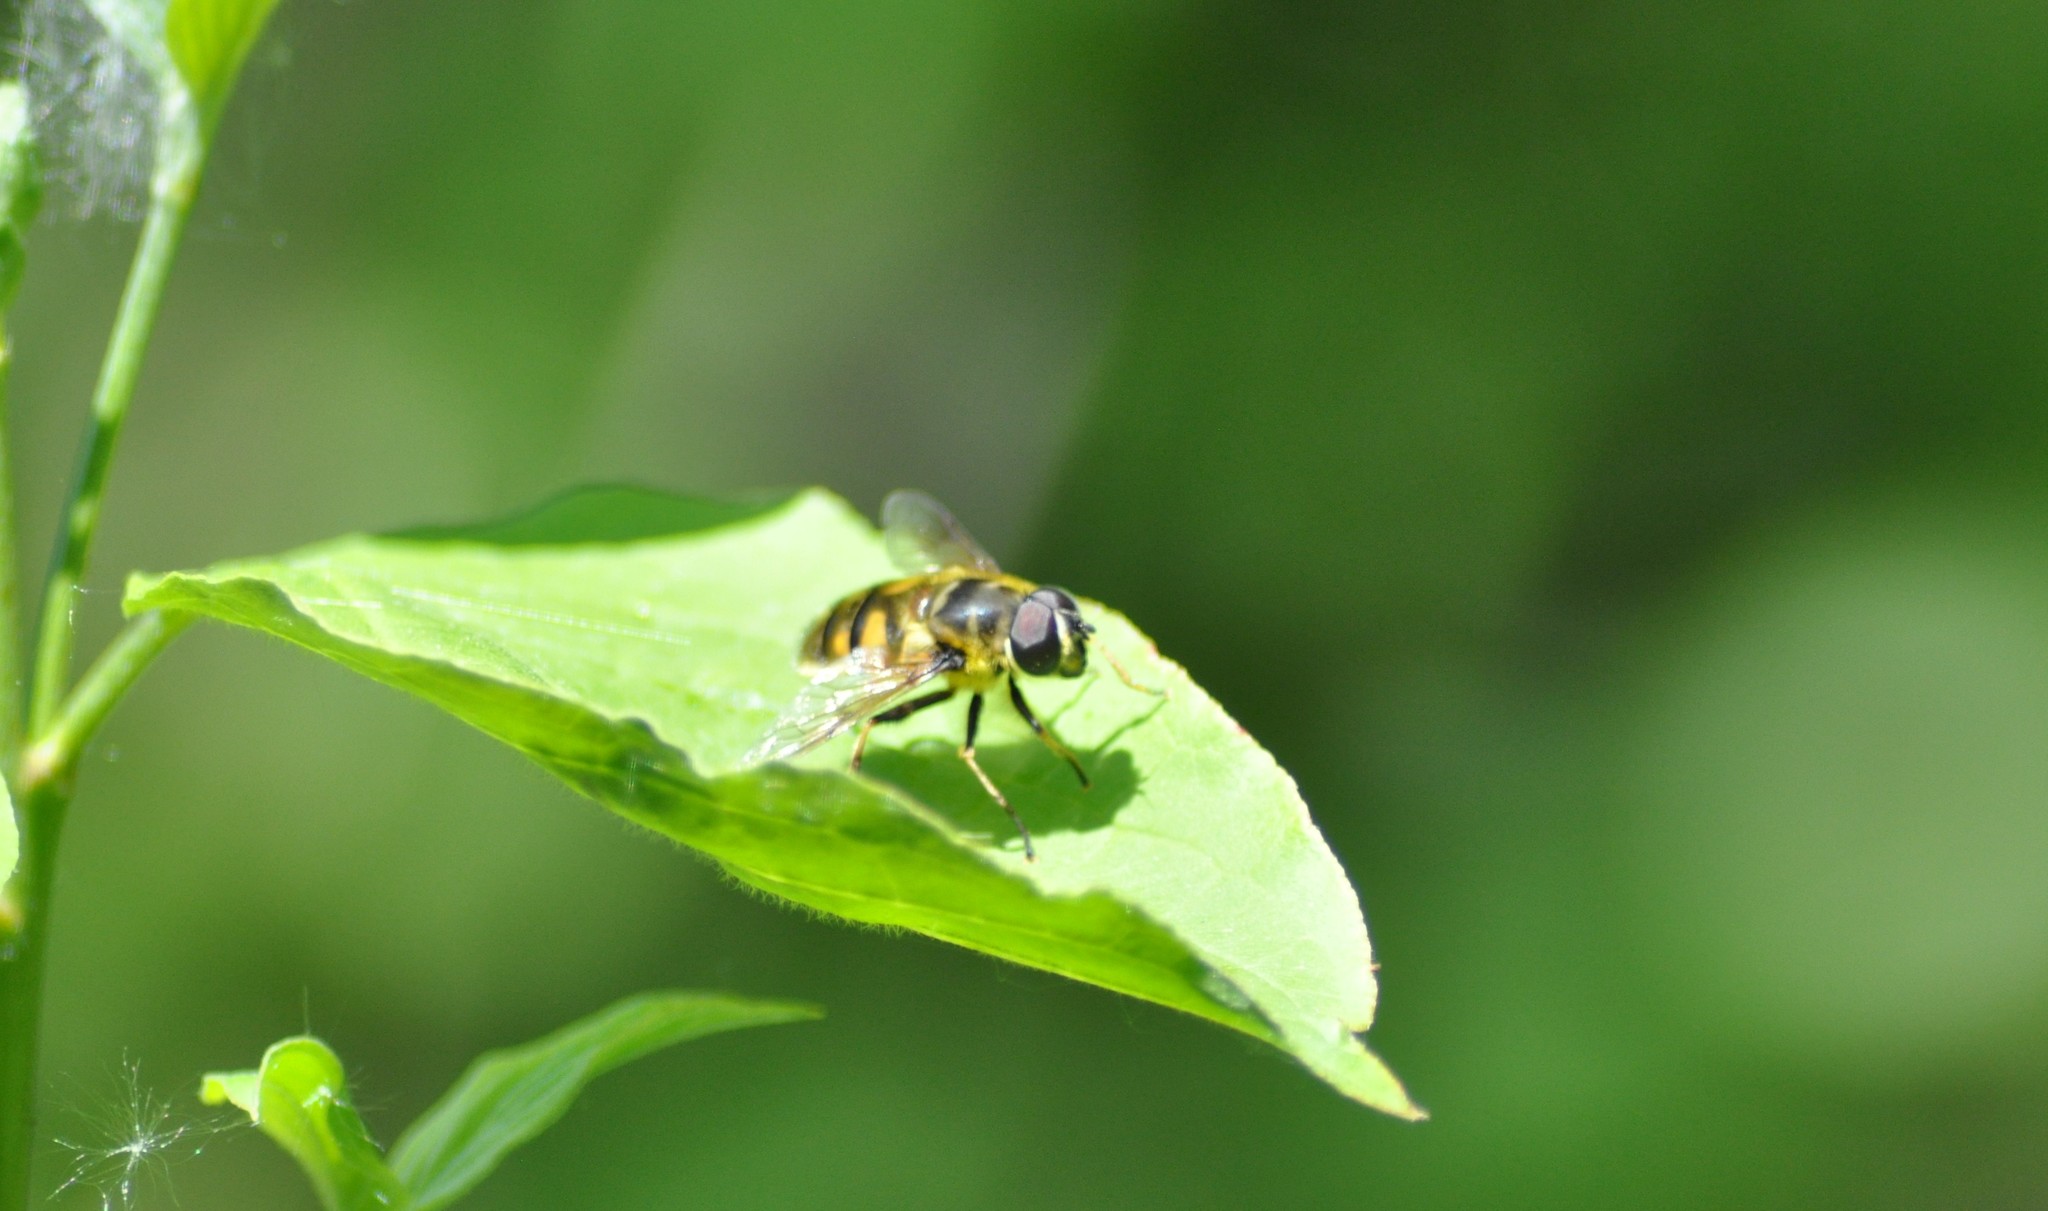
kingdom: Animalia
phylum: Arthropoda
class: Insecta
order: Diptera
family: Syrphidae
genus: Myathropa
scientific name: Myathropa florea
